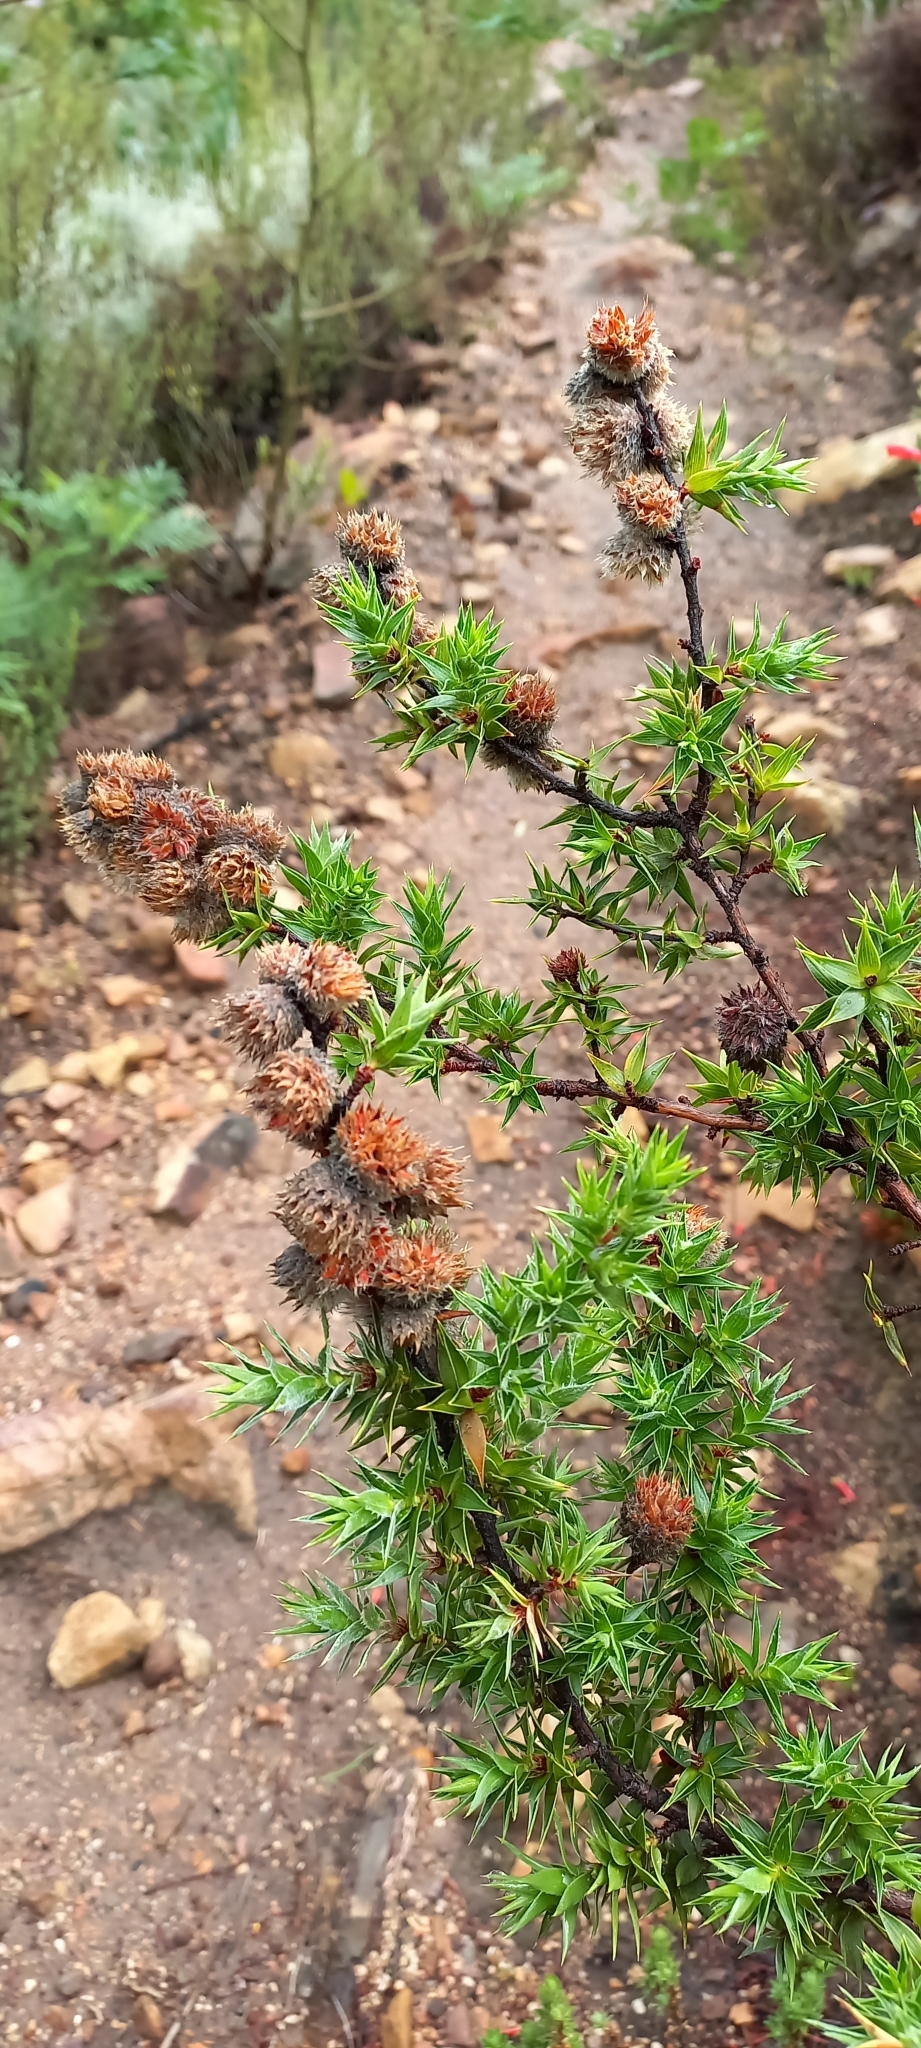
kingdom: Plantae
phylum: Tracheophyta
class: Magnoliopsida
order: Rosales
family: Rosaceae
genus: Cliffortia
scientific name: Cliffortia ruscifolia
